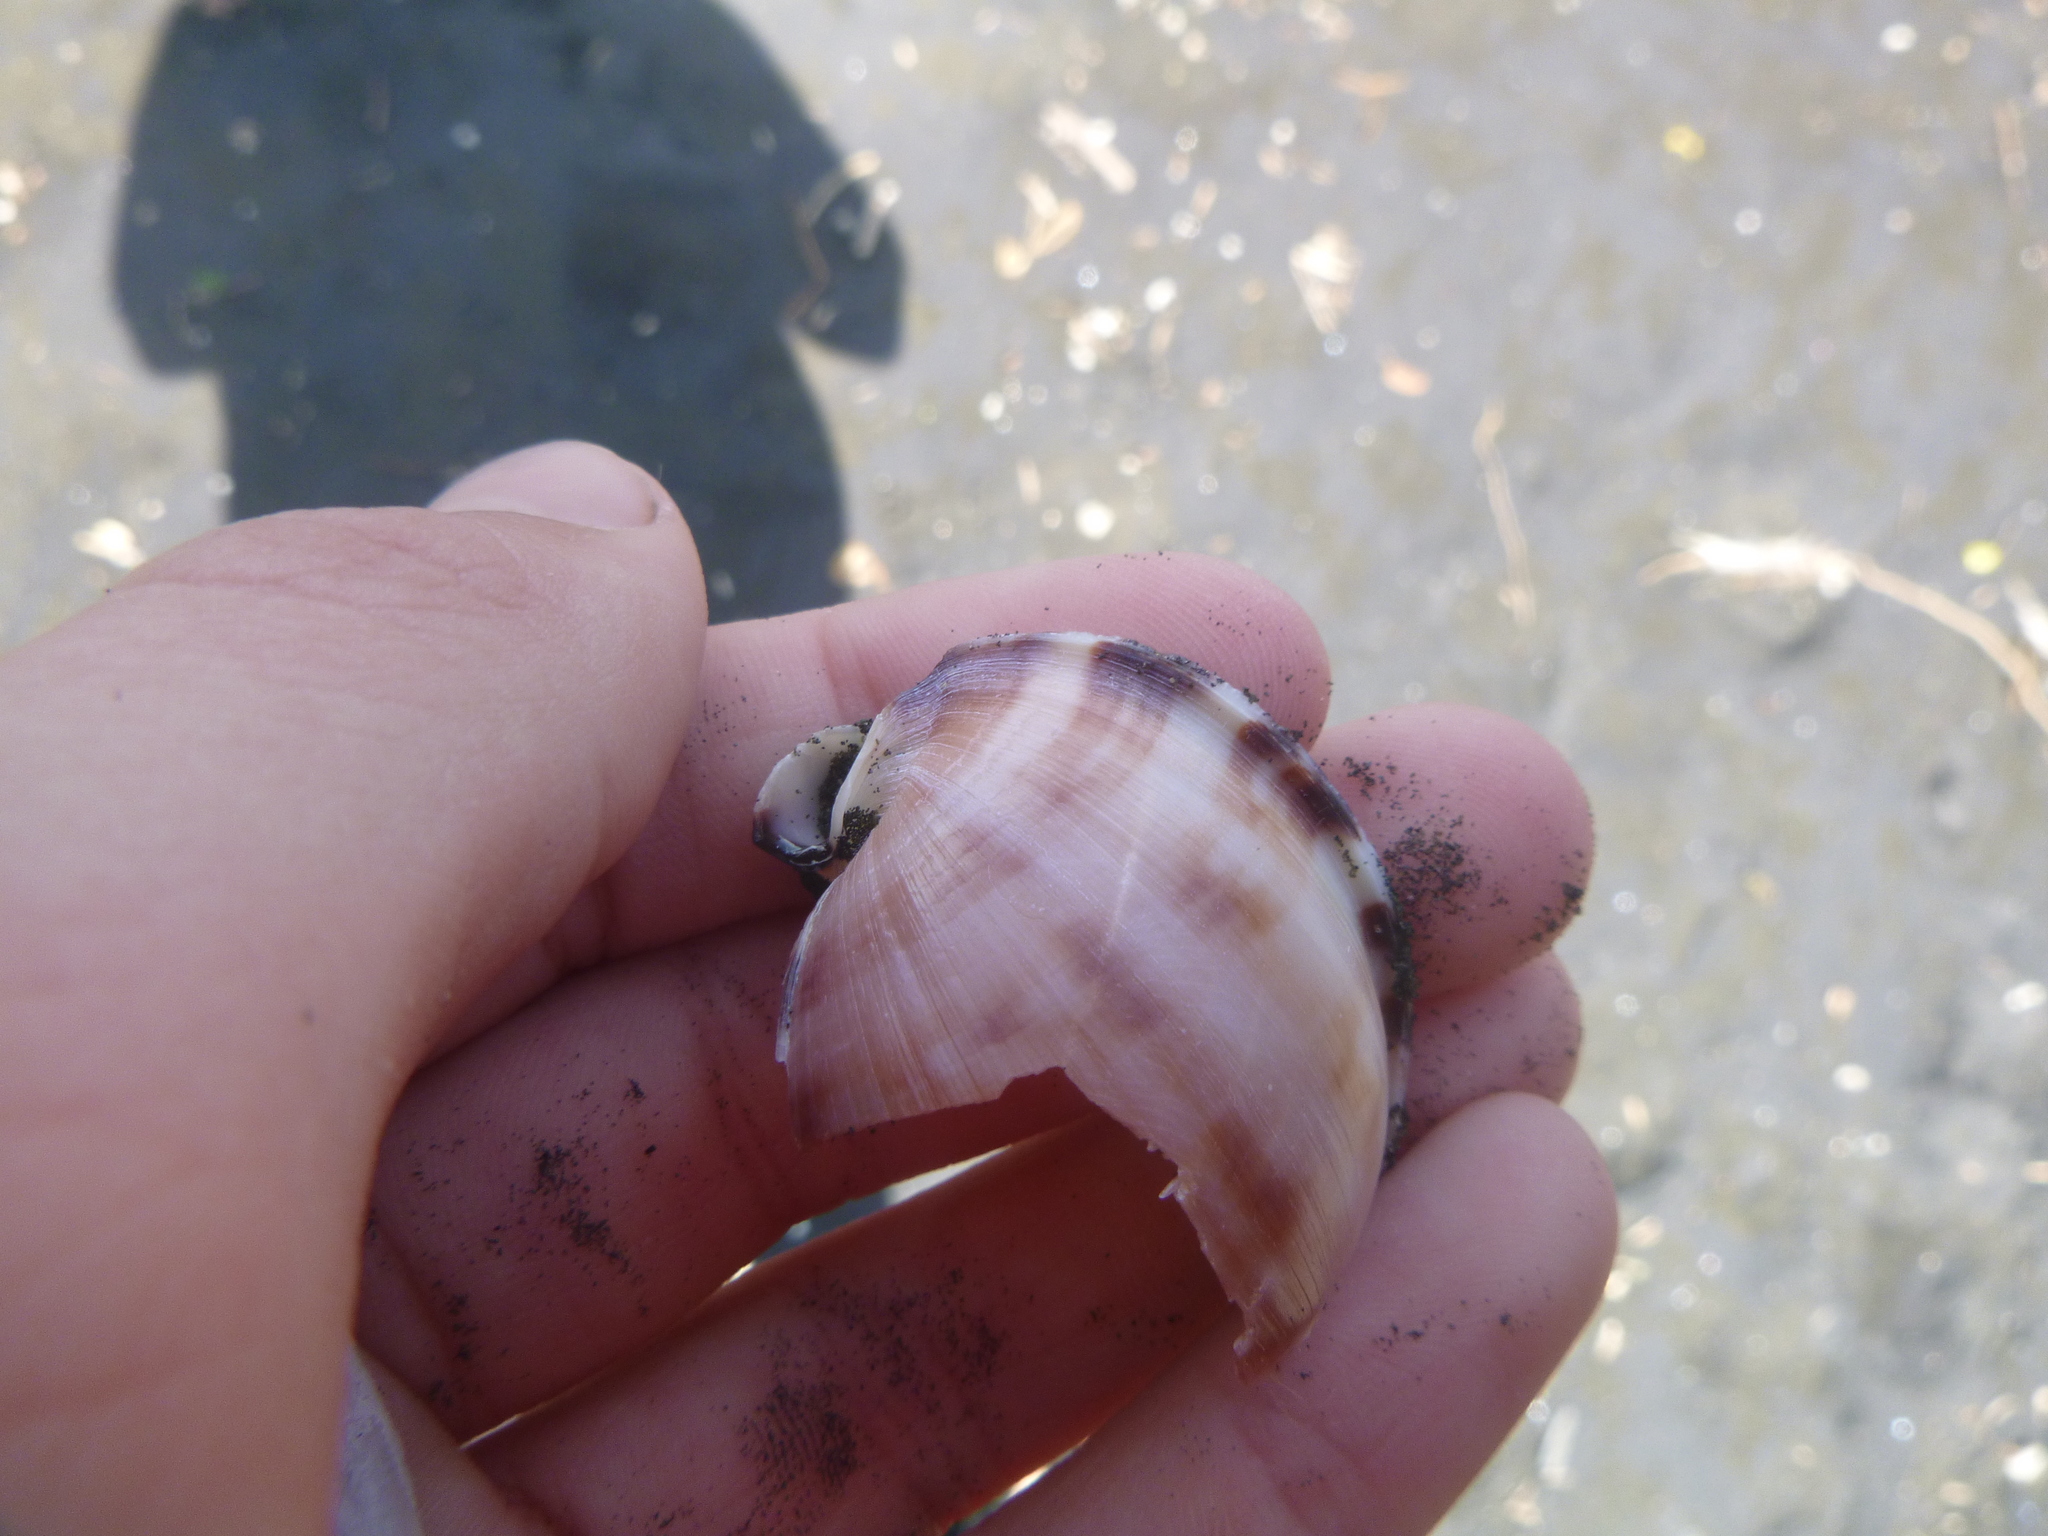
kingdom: Animalia
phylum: Mollusca
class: Gastropoda
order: Littorinimorpha
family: Cassidae
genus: Semicassis
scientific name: Semicassis pyrum
